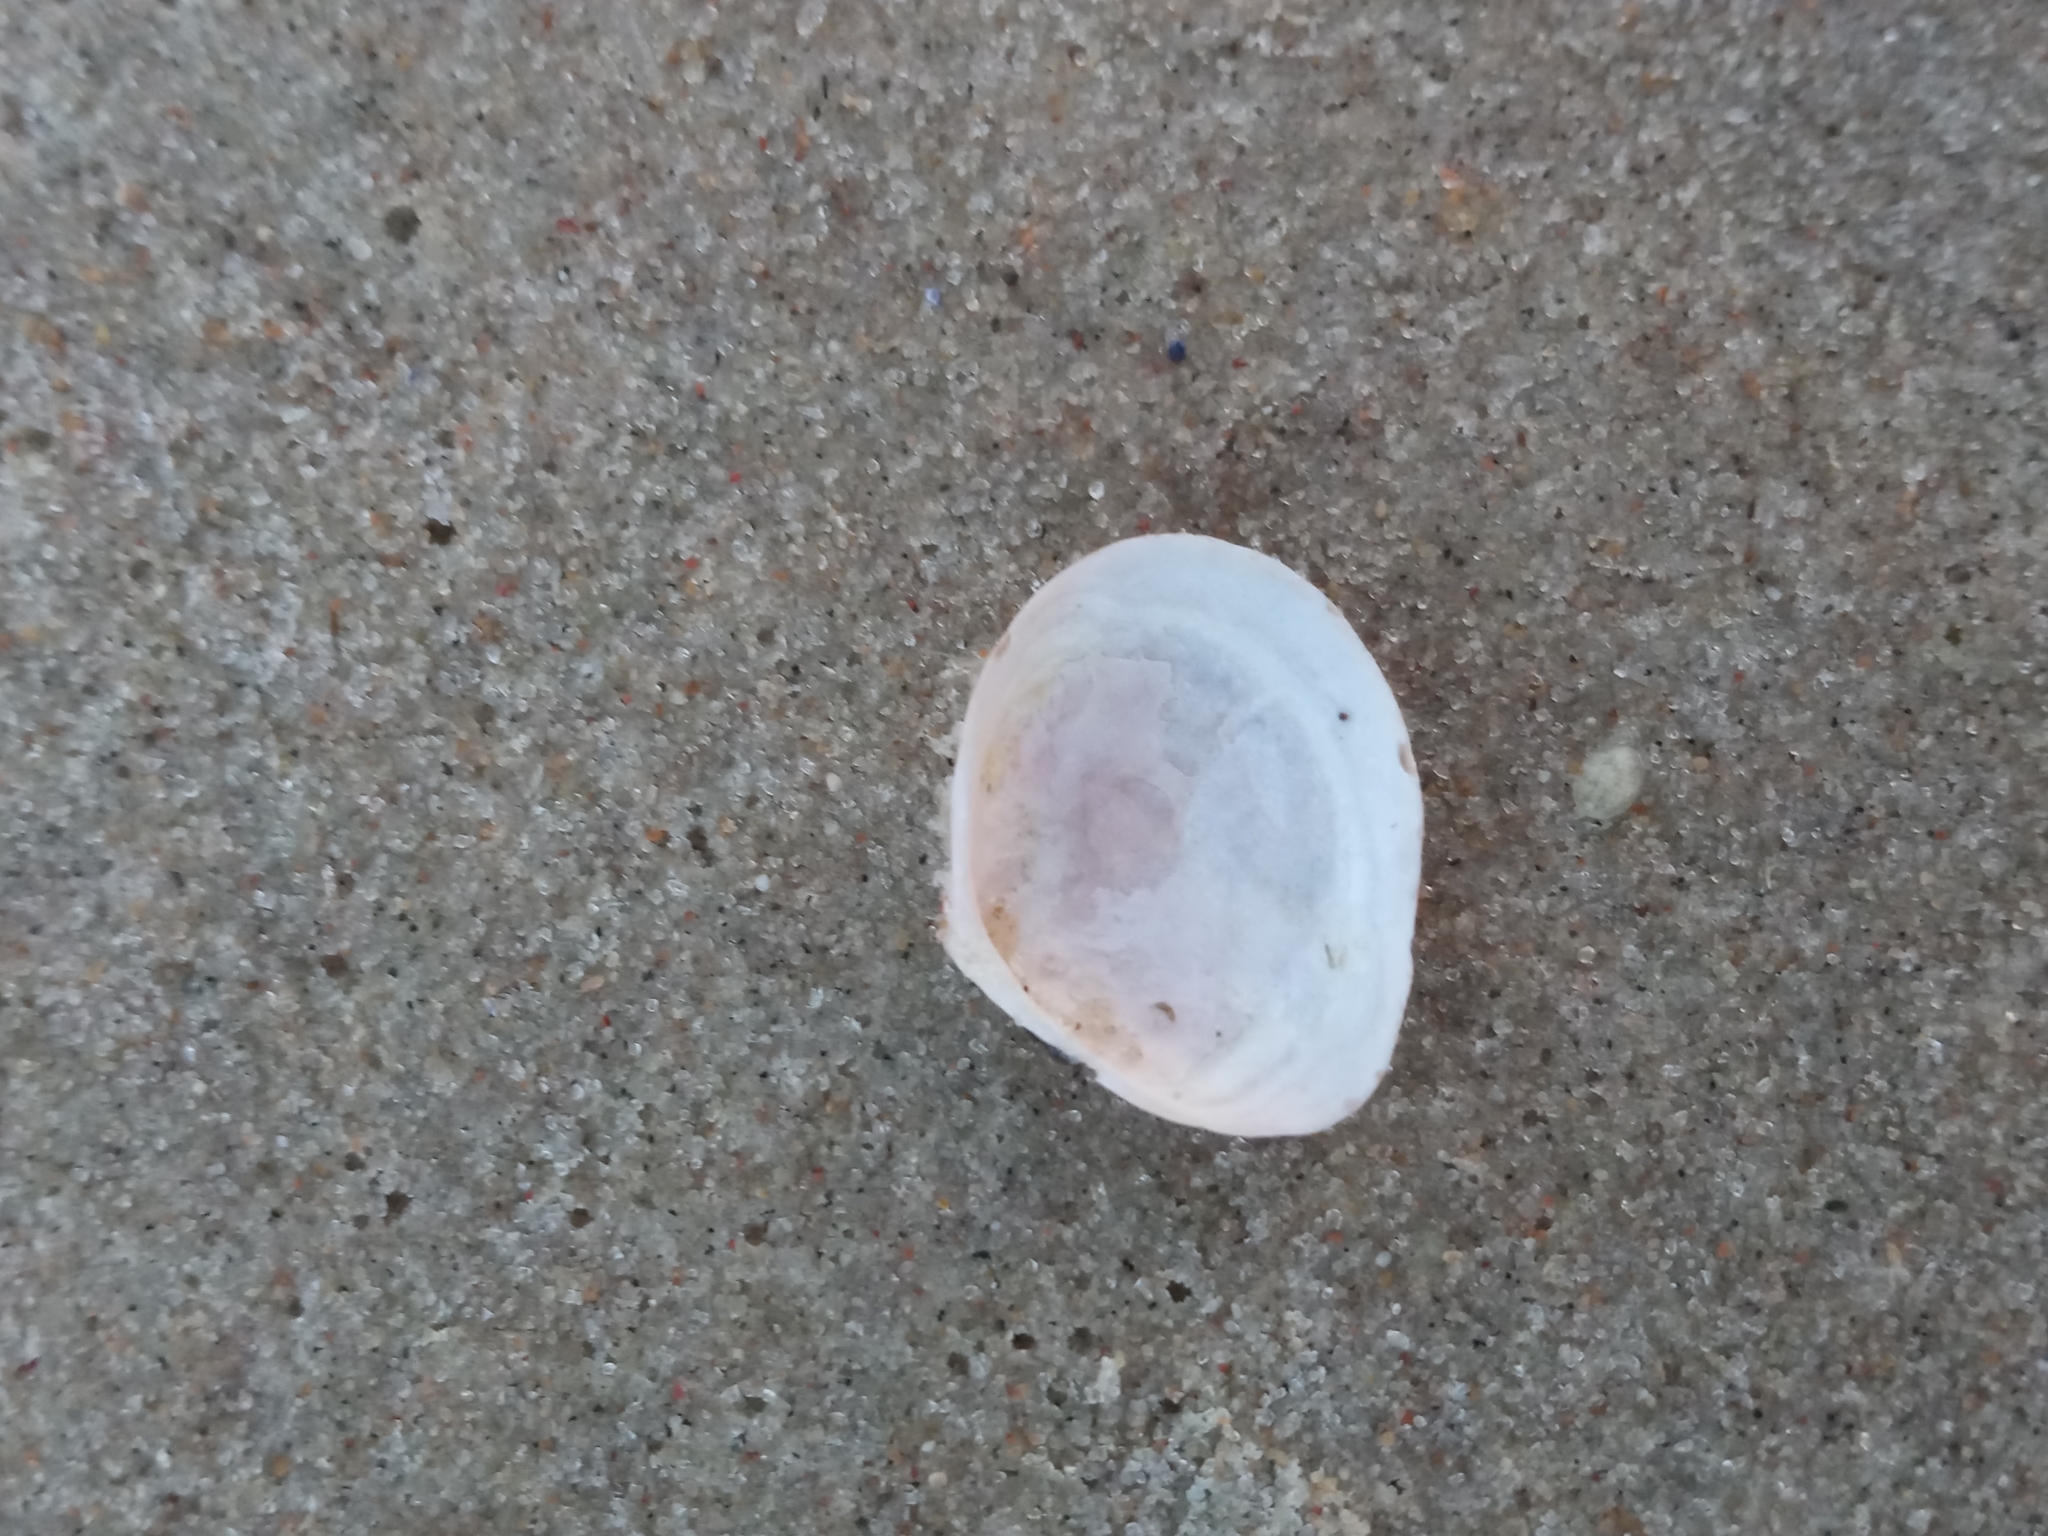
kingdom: Animalia
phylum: Mollusca
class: Bivalvia
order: Cardiida
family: Tellinidae
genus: Macoma
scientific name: Macoma balthica
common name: Baltic tellin
